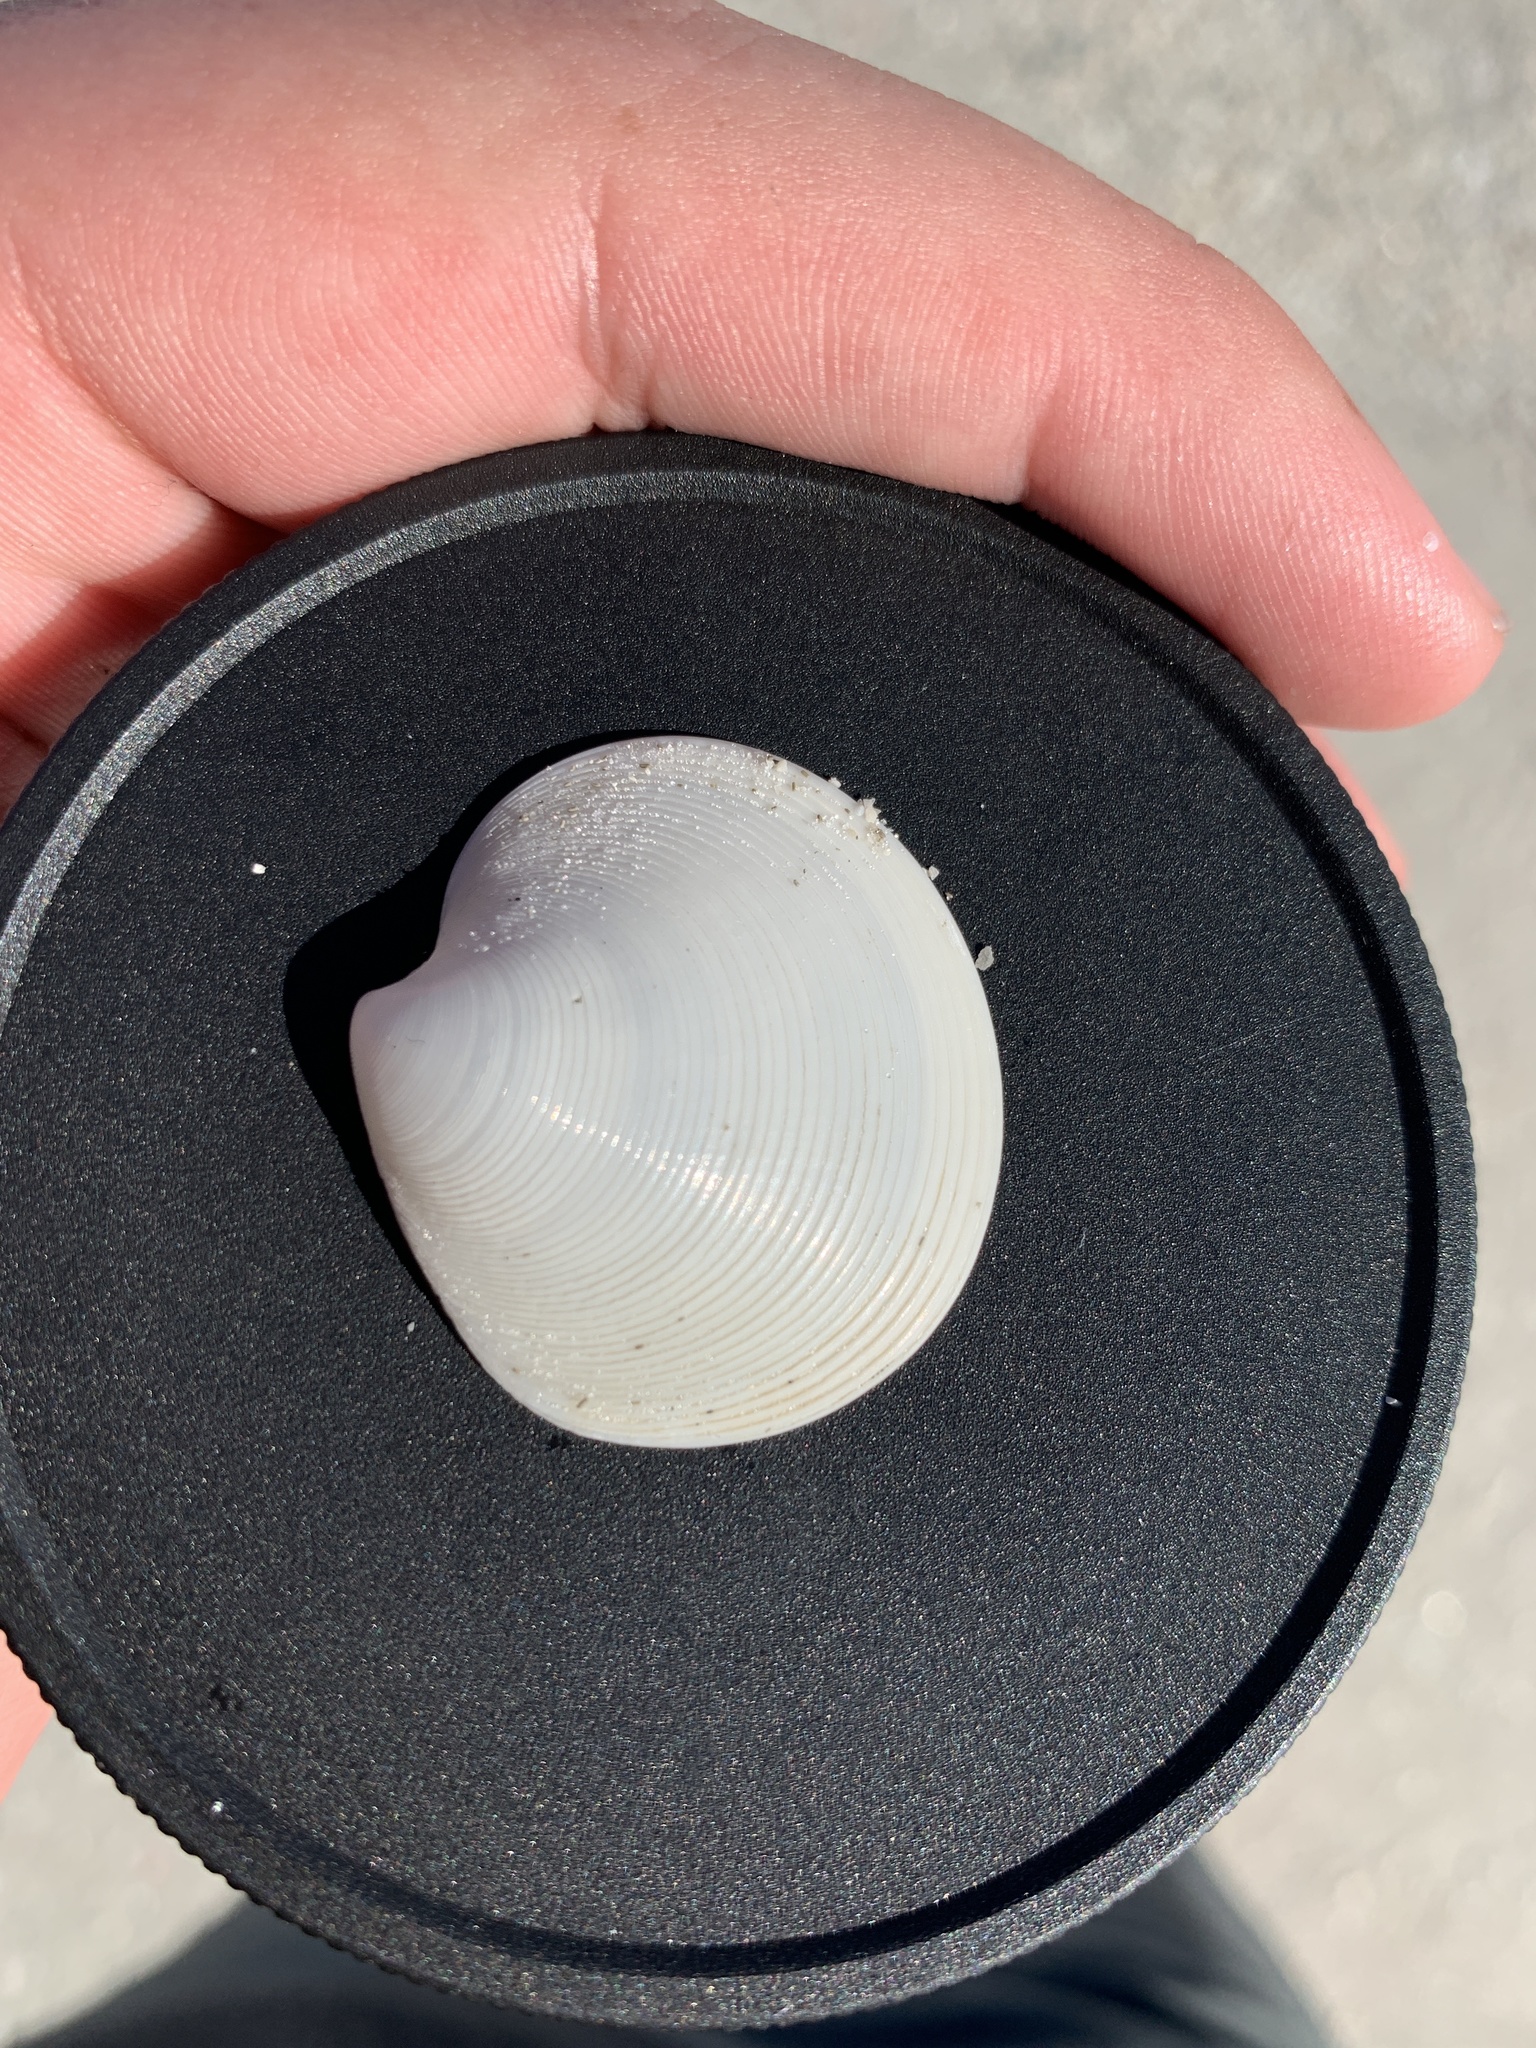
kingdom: Animalia
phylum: Mollusca
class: Bivalvia
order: Venerida
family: Veneridae
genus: Dosinia
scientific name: Dosinia concentrica
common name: Elegant dosinia
